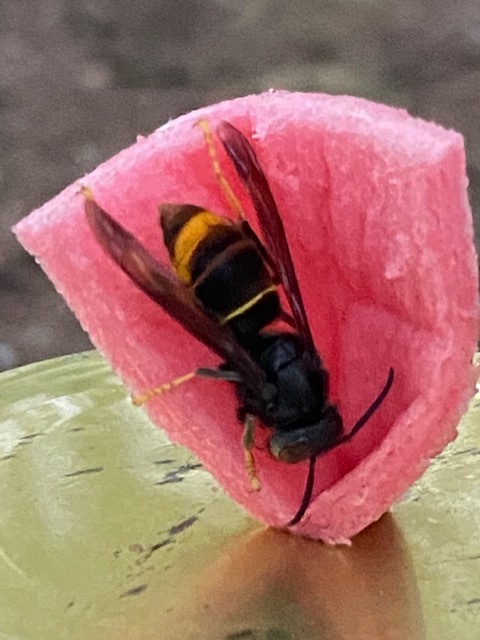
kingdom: Animalia
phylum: Arthropoda
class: Insecta
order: Hymenoptera
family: Vespidae
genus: Vespa
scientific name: Vespa velutina
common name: Asian hornet
